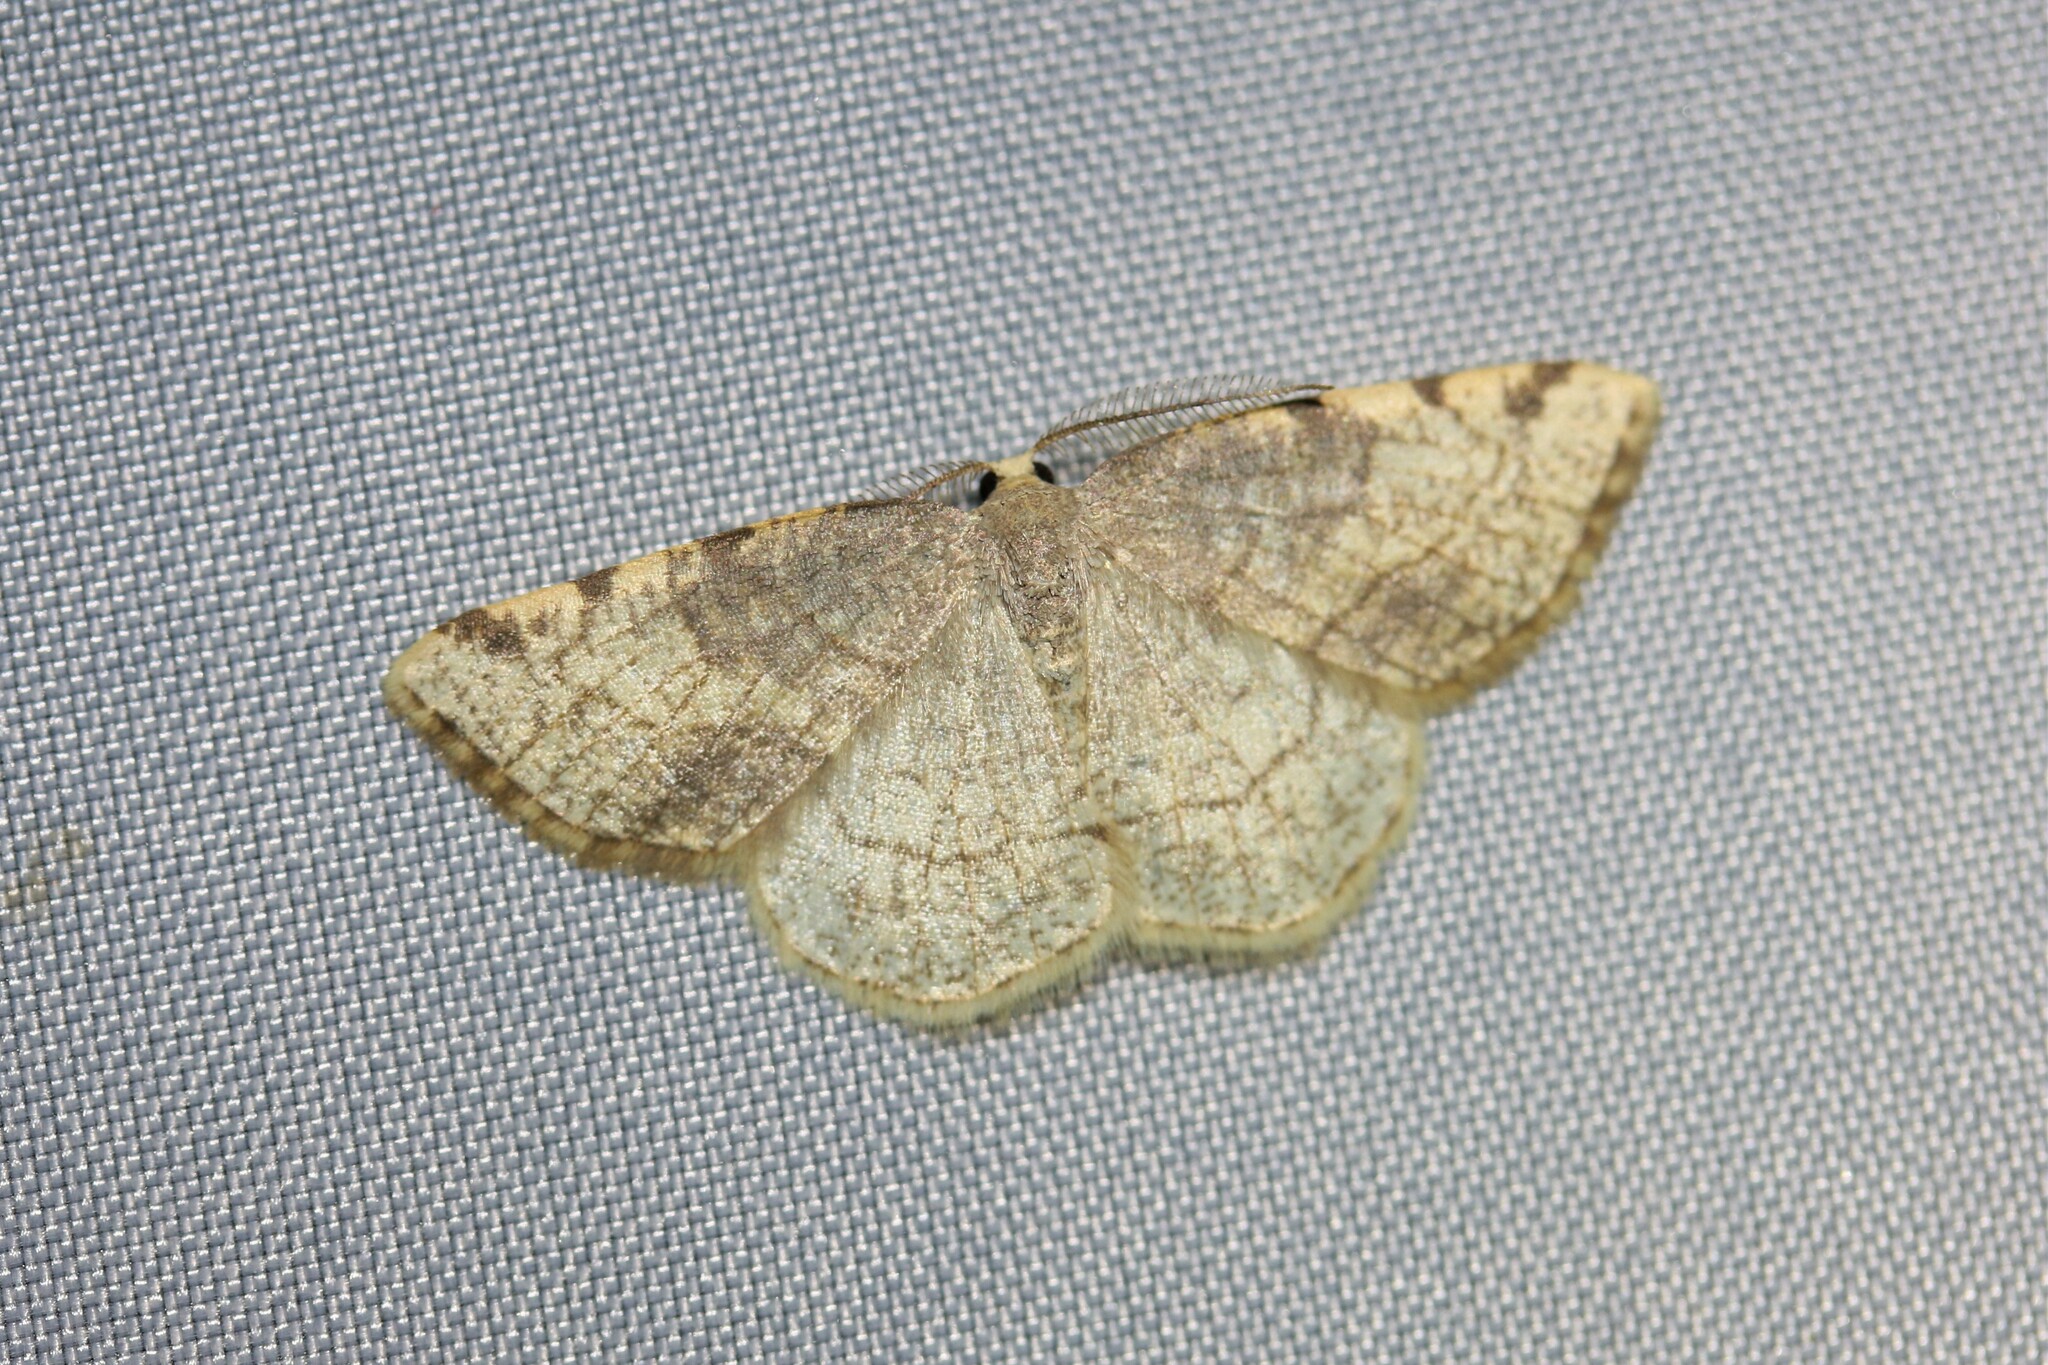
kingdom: Animalia
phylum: Arthropoda
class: Insecta
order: Lepidoptera
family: Geometridae
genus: Stegania
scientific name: Stegania trimaculata
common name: Dorset cream wave
